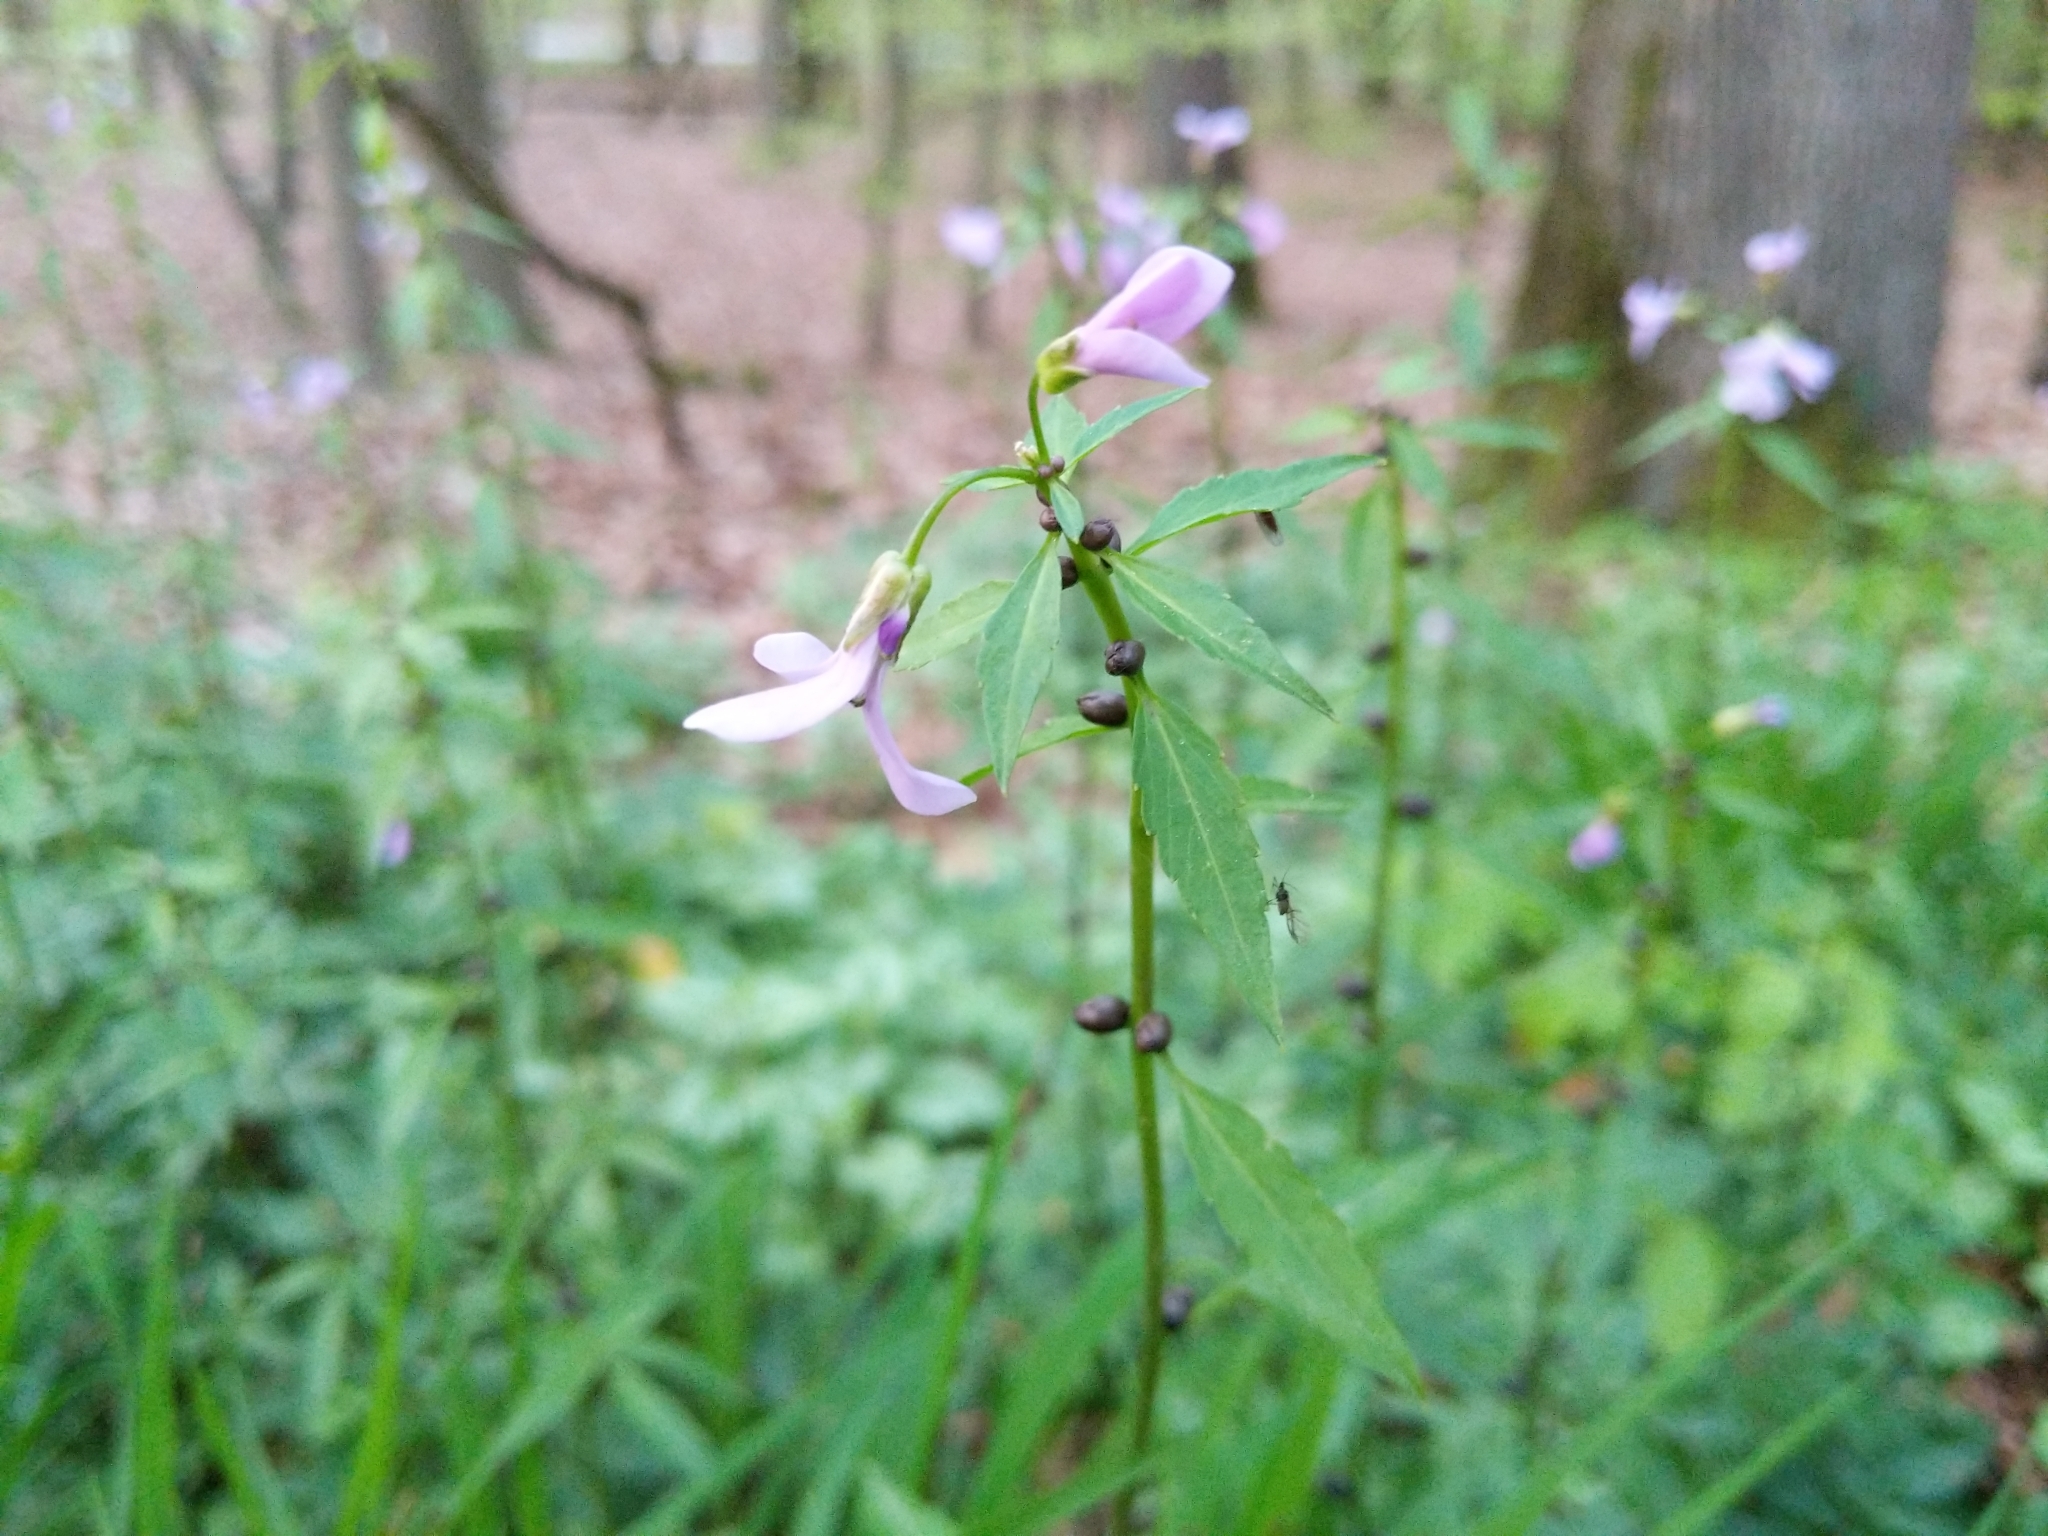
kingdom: Plantae
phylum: Tracheophyta
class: Magnoliopsida
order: Brassicales
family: Brassicaceae
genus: Cardamine
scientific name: Cardamine bulbifera
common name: Coralroot bittercress
